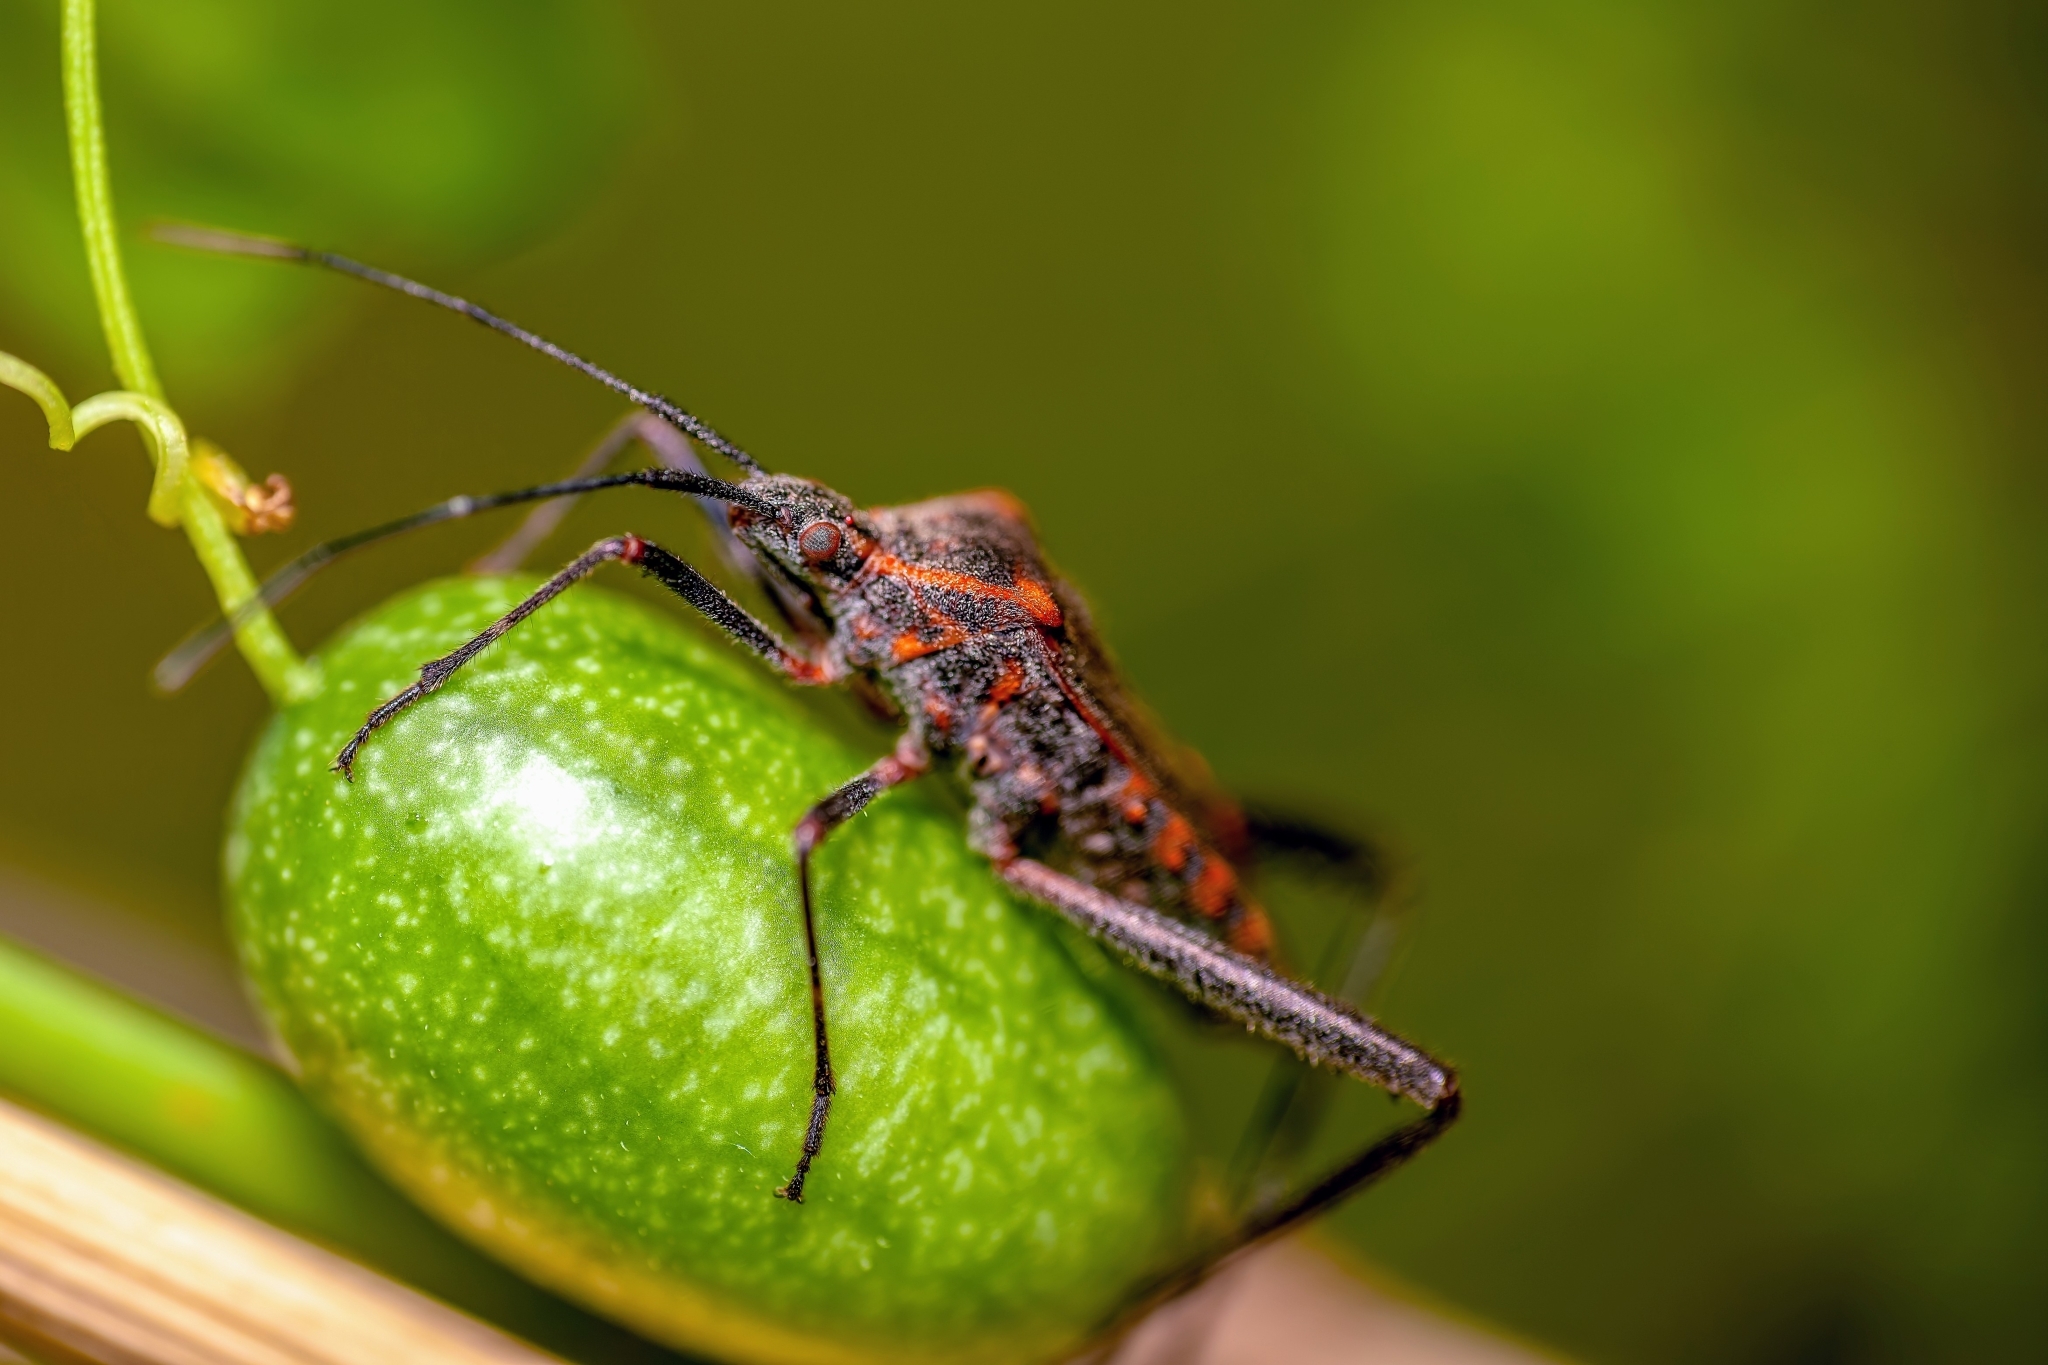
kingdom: Animalia
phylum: Arthropoda
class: Insecta
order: Hemiptera
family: Coreidae
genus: Phthiacnemia
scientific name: Phthiacnemia picta
